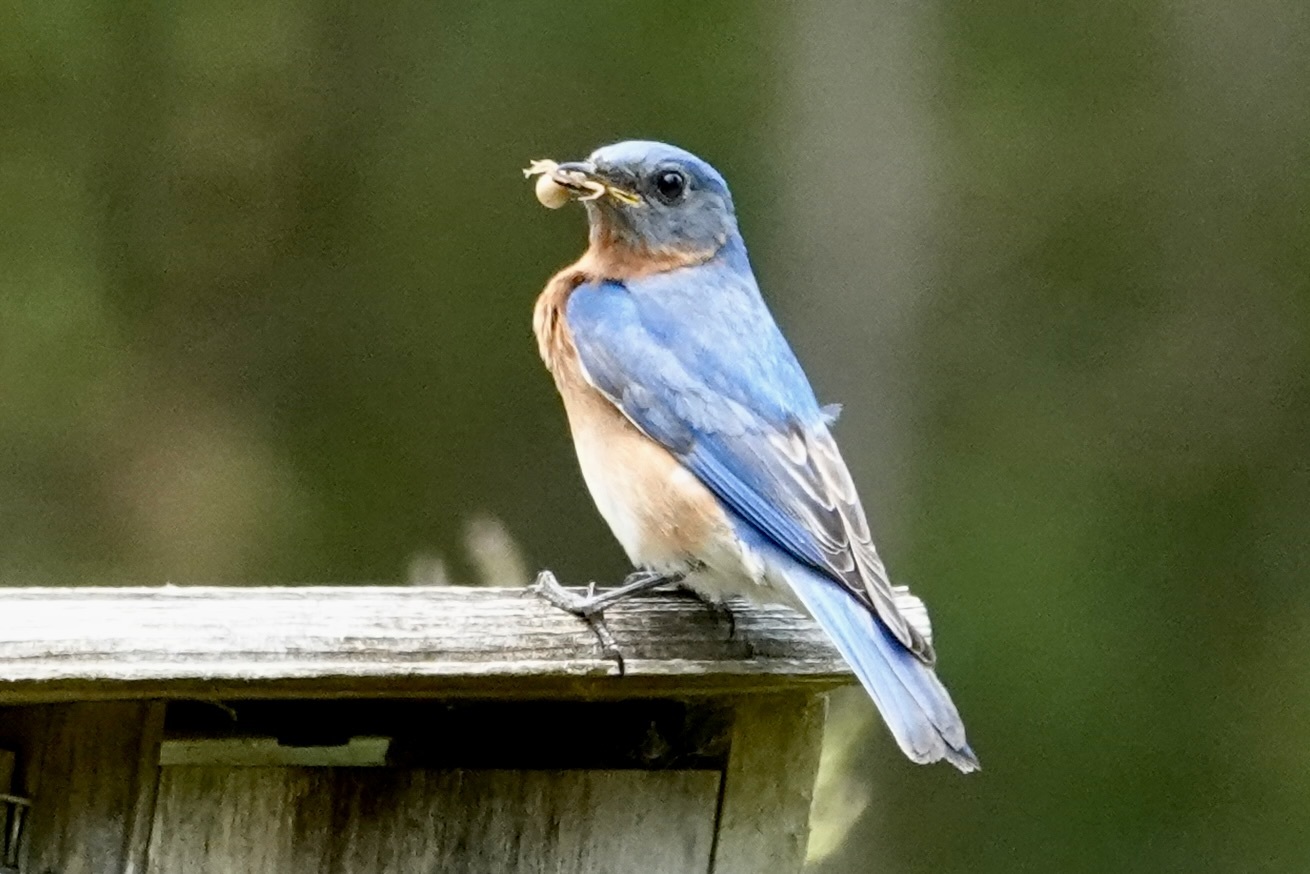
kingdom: Animalia
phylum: Chordata
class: Aves
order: Passeriformes
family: Turdidae
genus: Sialia
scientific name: Sialia sialis
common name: Eastern bluebird
